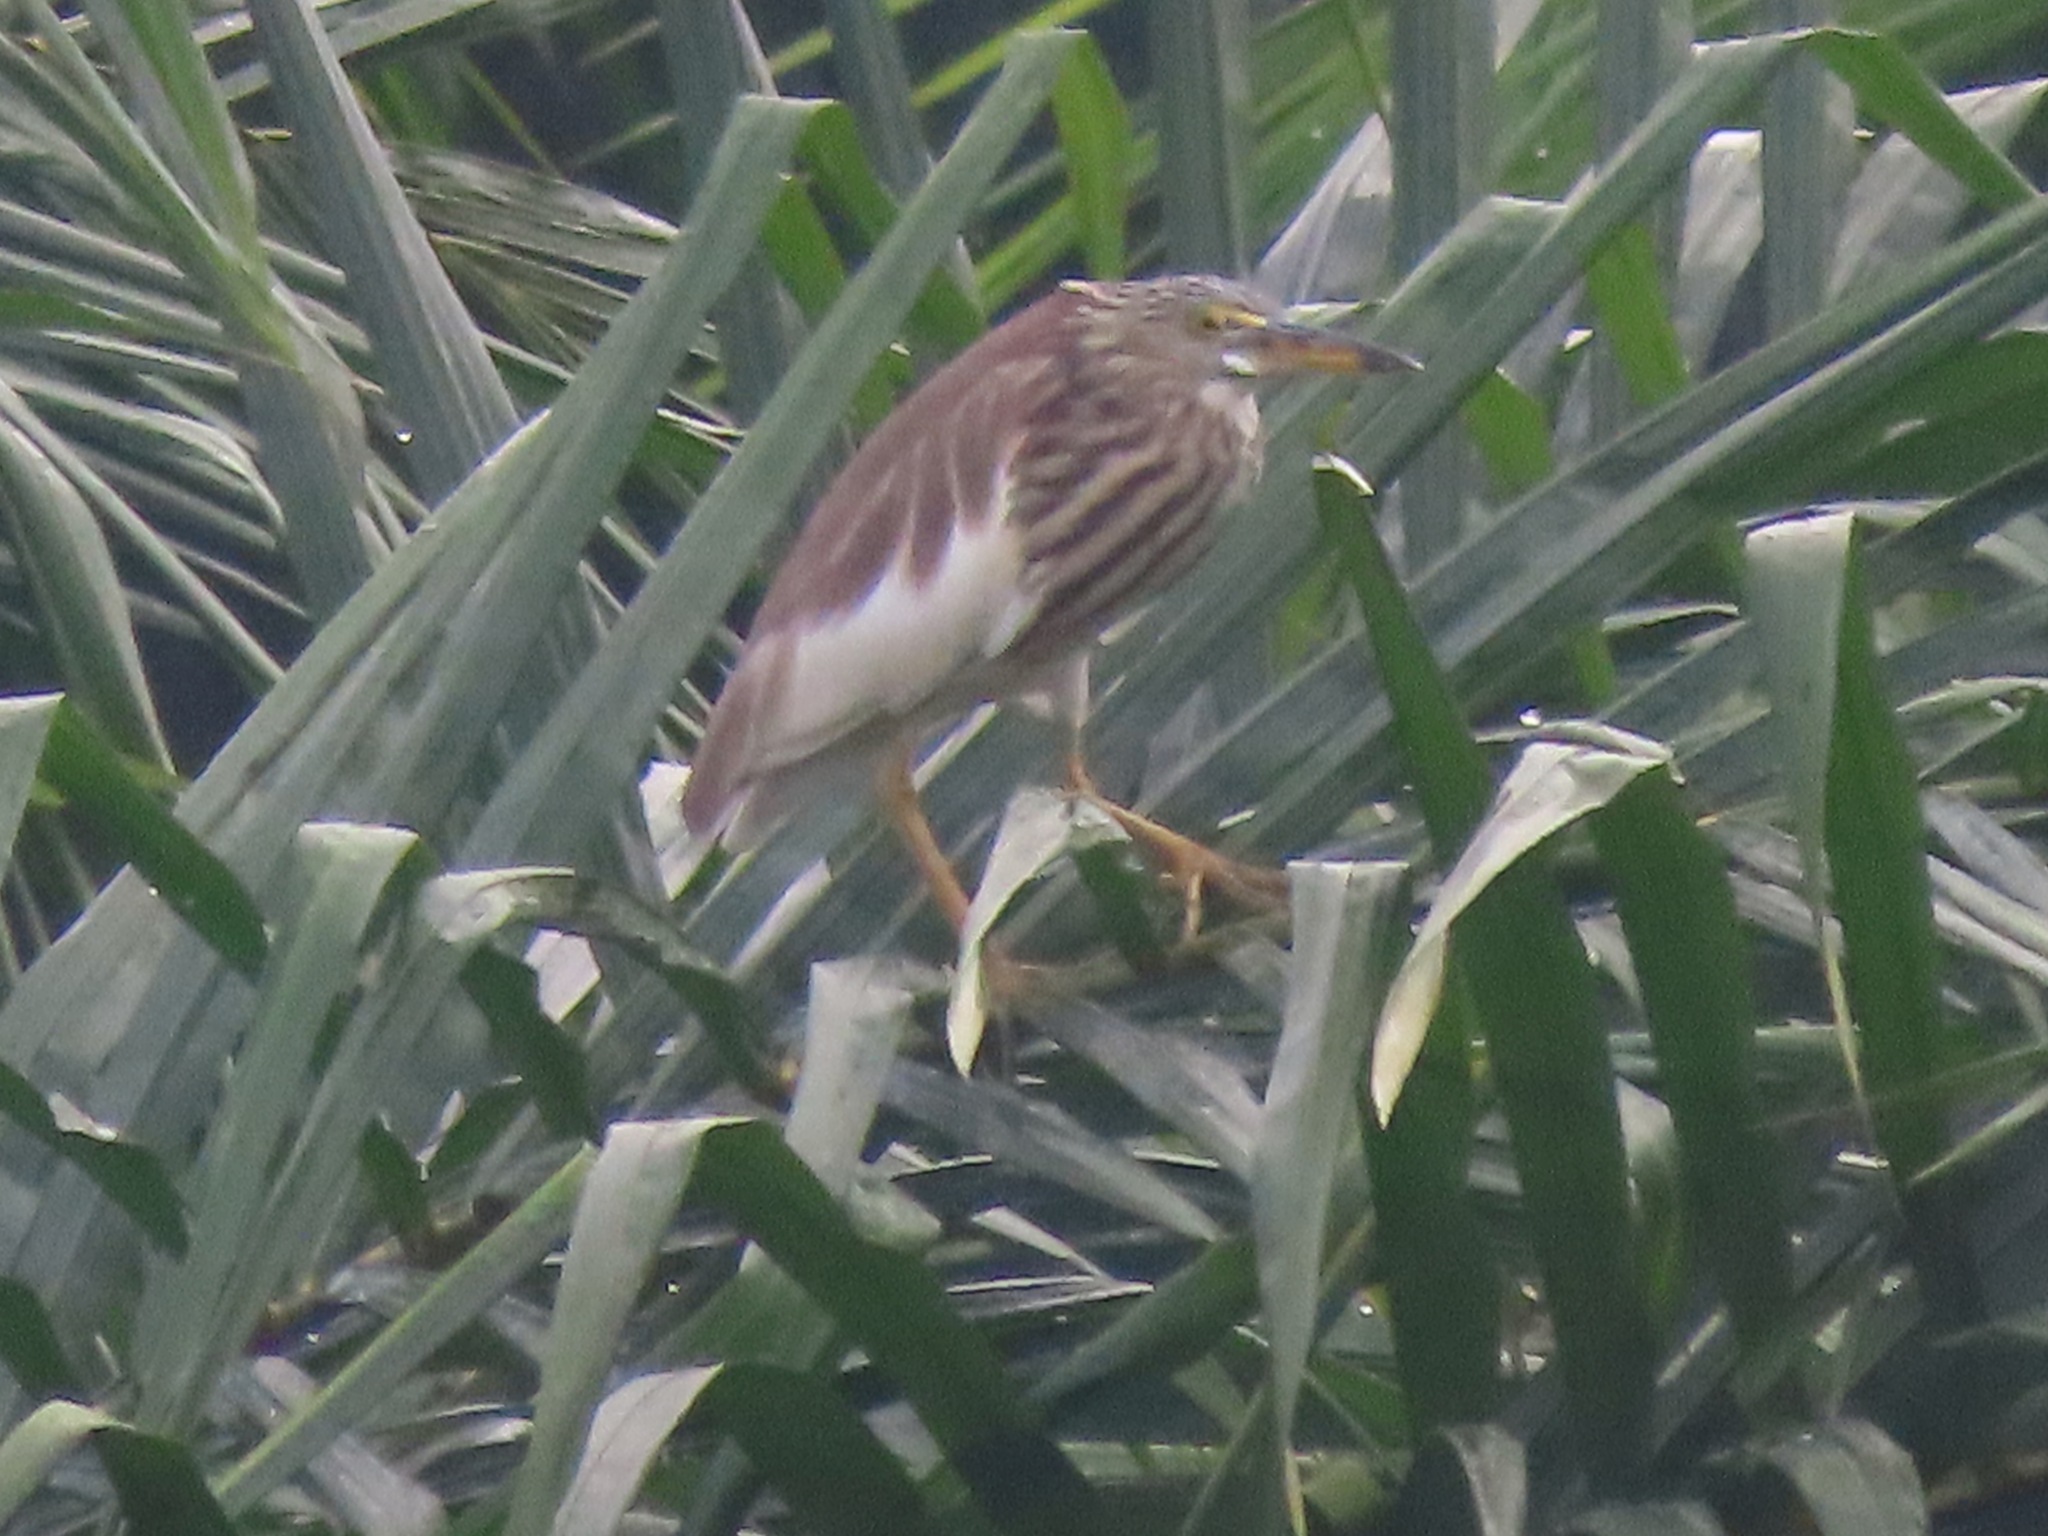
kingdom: Animalia
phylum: Chordata
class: Aves
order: Pelecaniformes
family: Ardeidae
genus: Ardeola
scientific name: Ardeola bacchus
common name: Chinese pond heron
